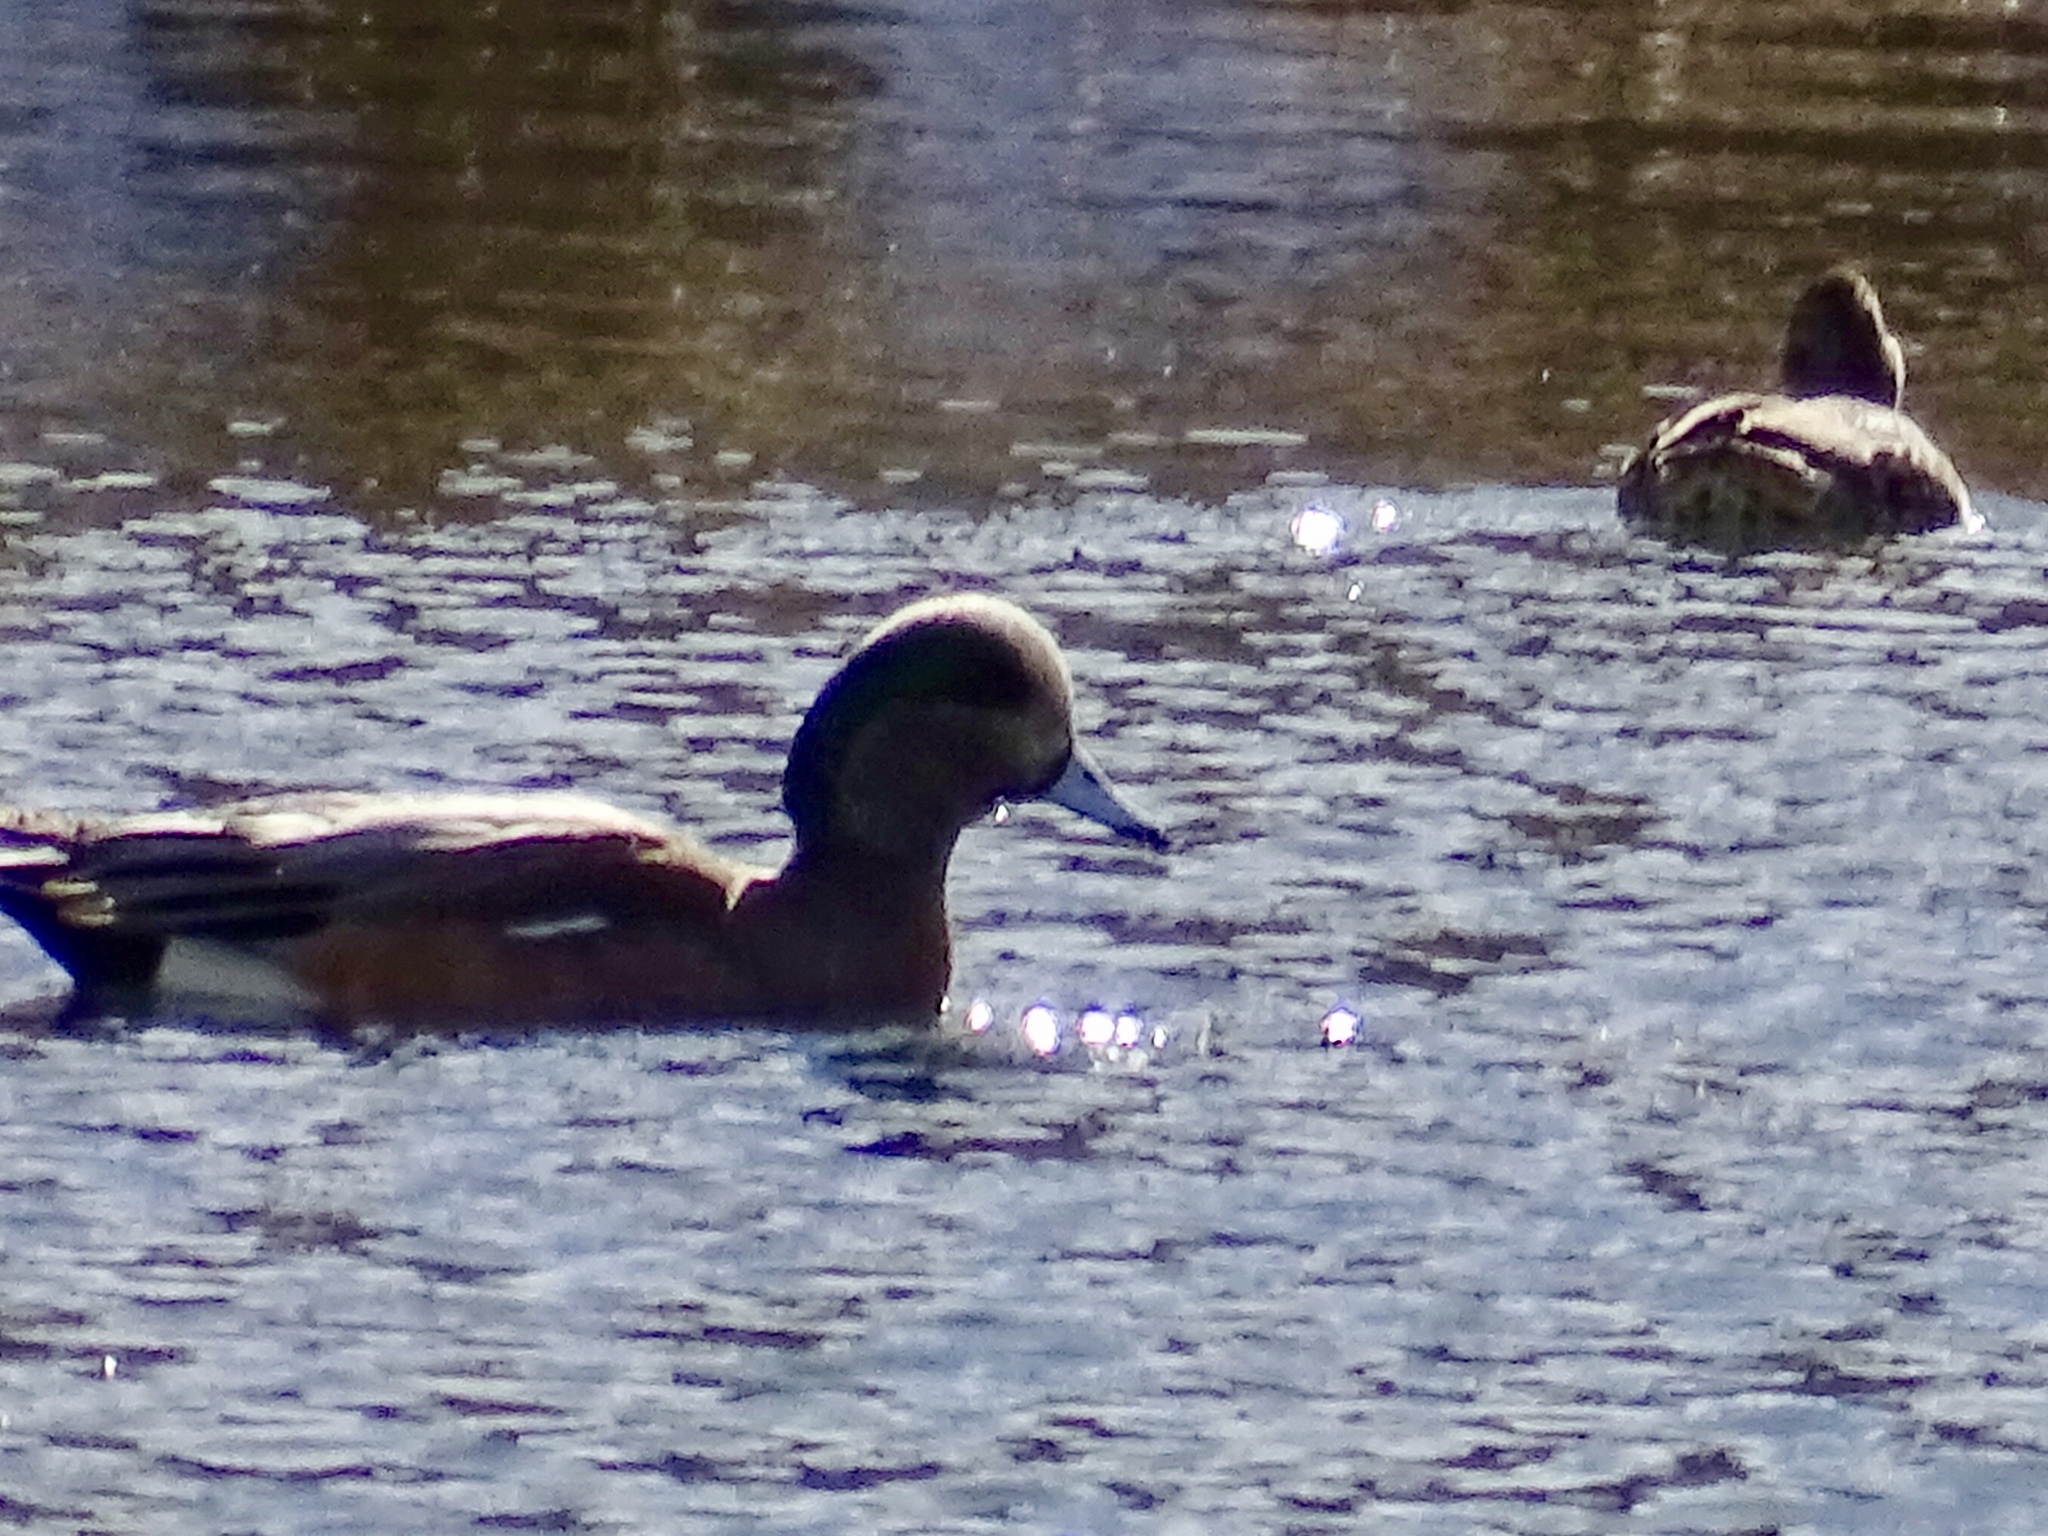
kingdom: Animalia
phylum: Chordata
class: Aves
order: Anseriformes
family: Anatidae
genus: Mareca
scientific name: Mareca americana
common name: American wigeon
